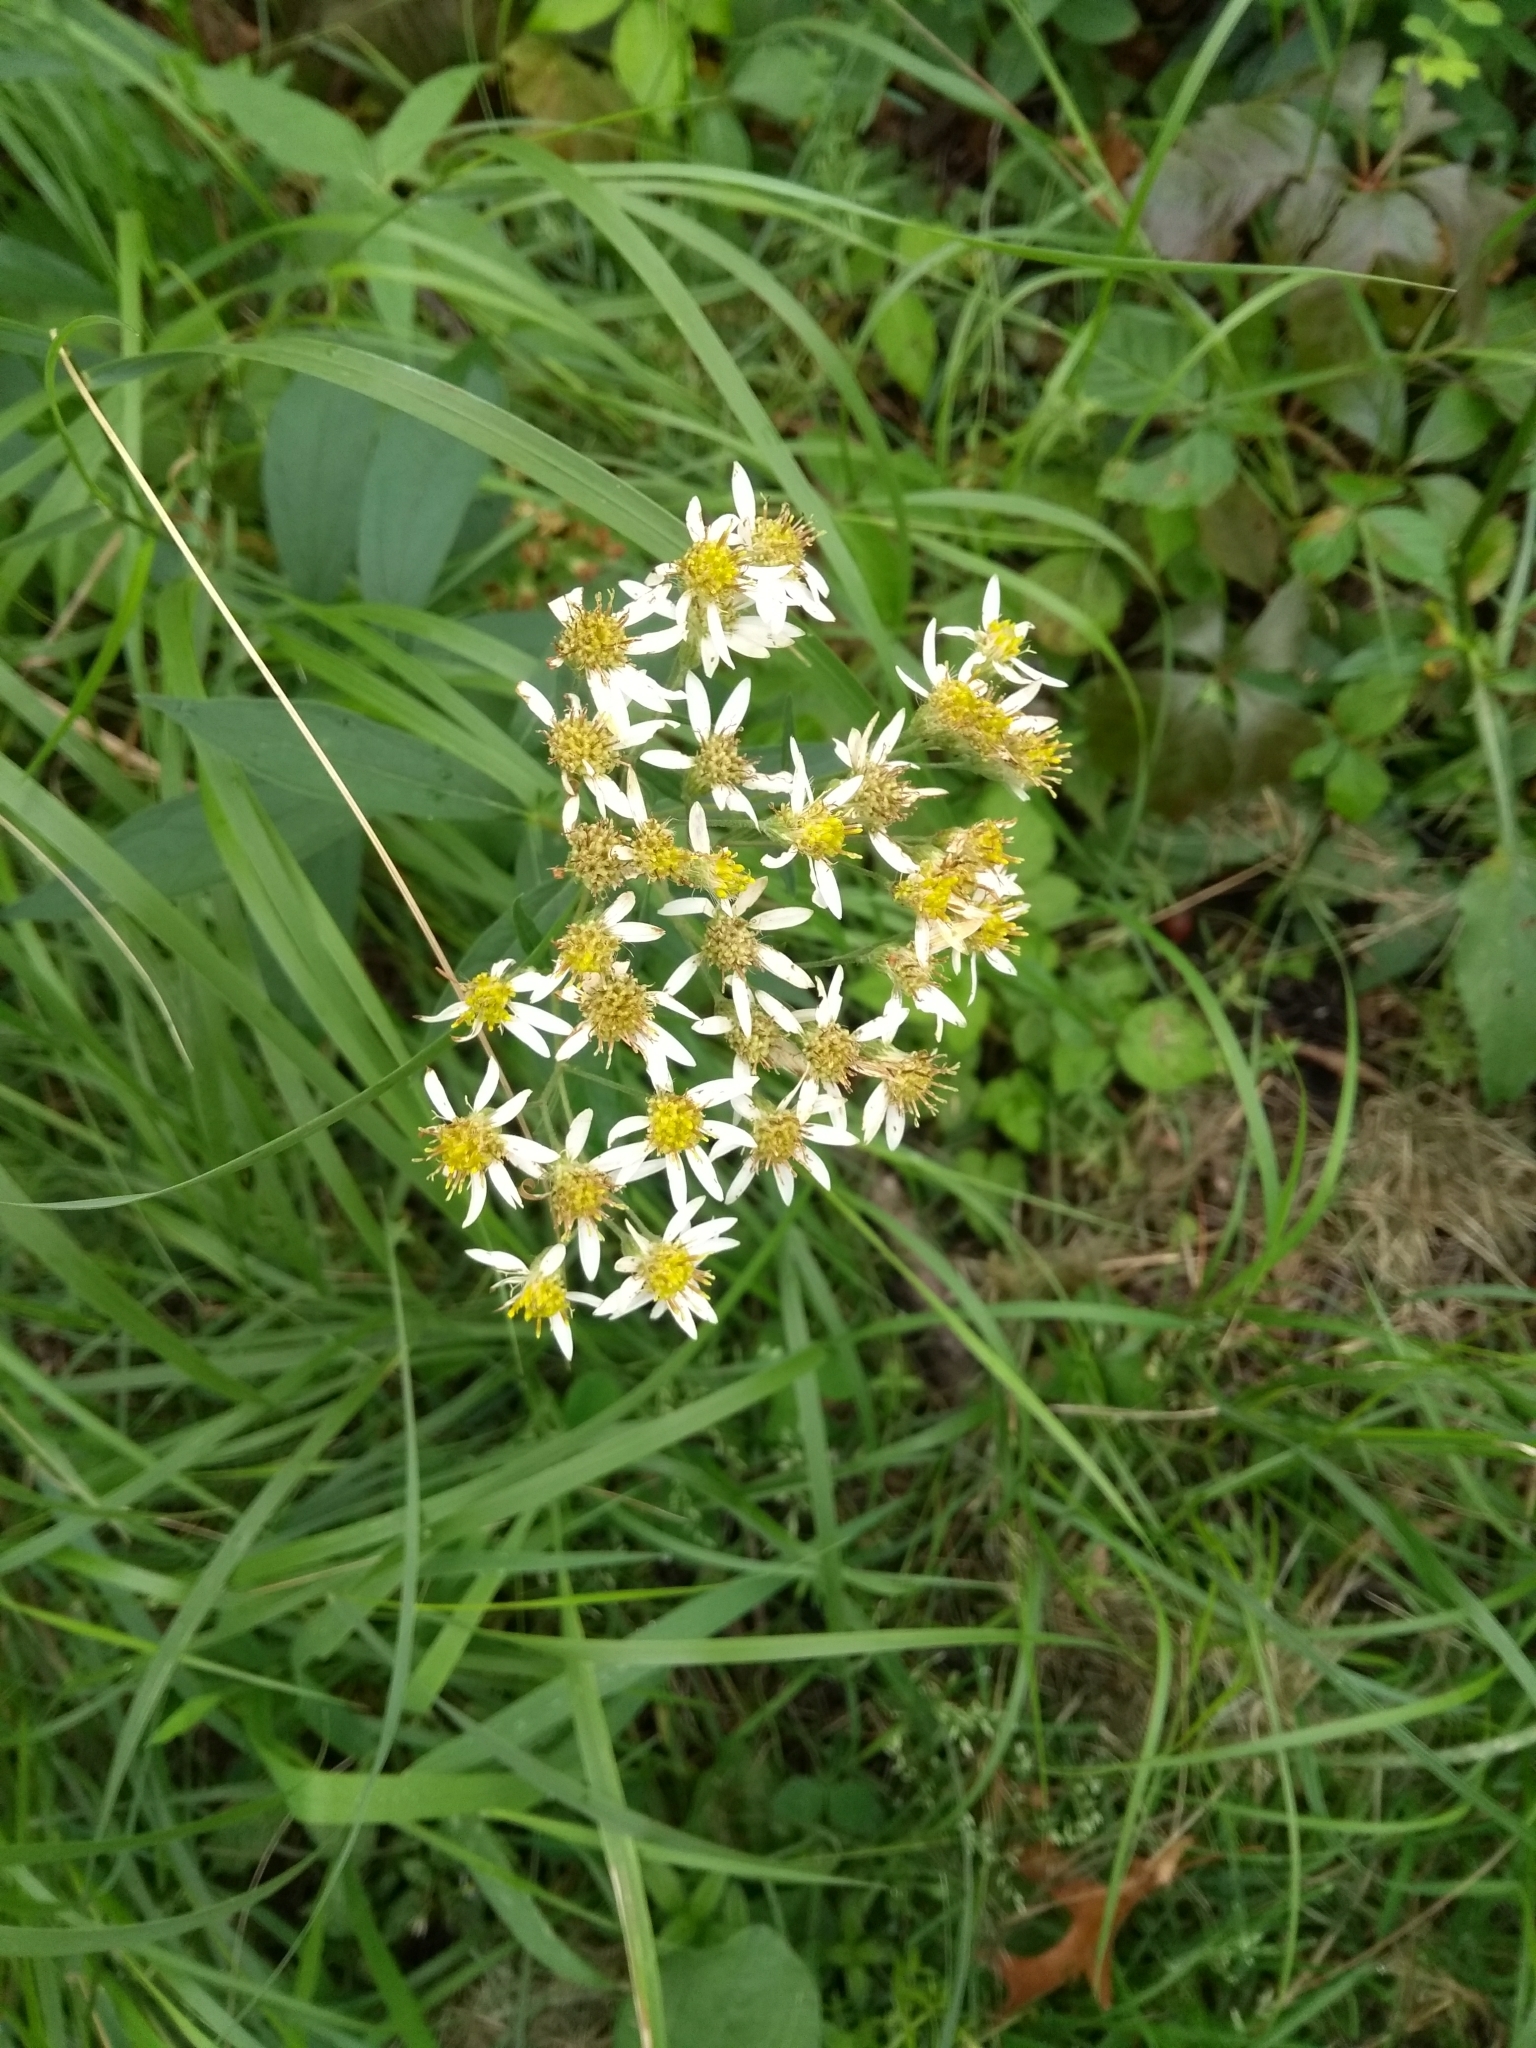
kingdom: Plantae
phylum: Tracheophyta
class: Magnoliopsida
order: Asterales
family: Asteraceae
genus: Doellingeria
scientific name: Doellingeria umbellata
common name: Flat-top white aster
